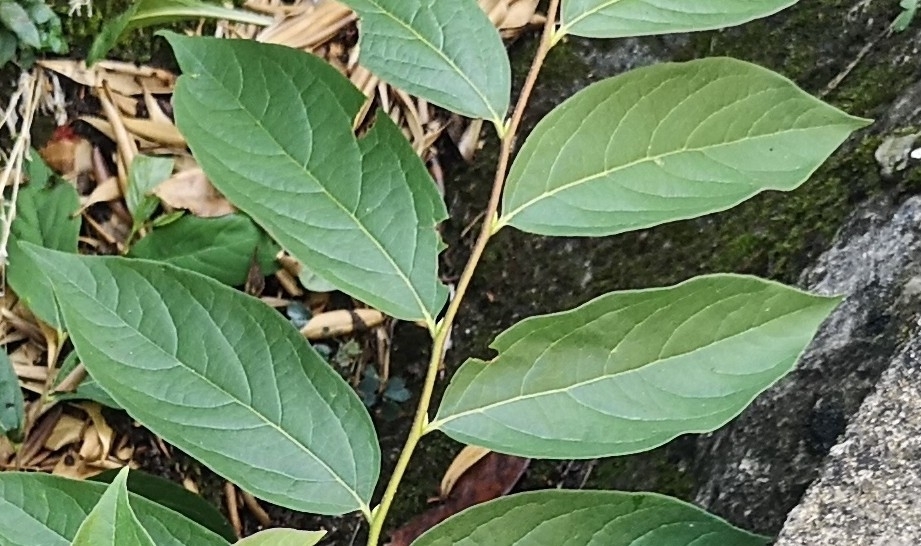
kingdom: Plantae
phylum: Tracheophyta
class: Magnoliopsida
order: Ericales
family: Ebenaceae
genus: Diospyros
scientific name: Diospyros lotus
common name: Date-plum
